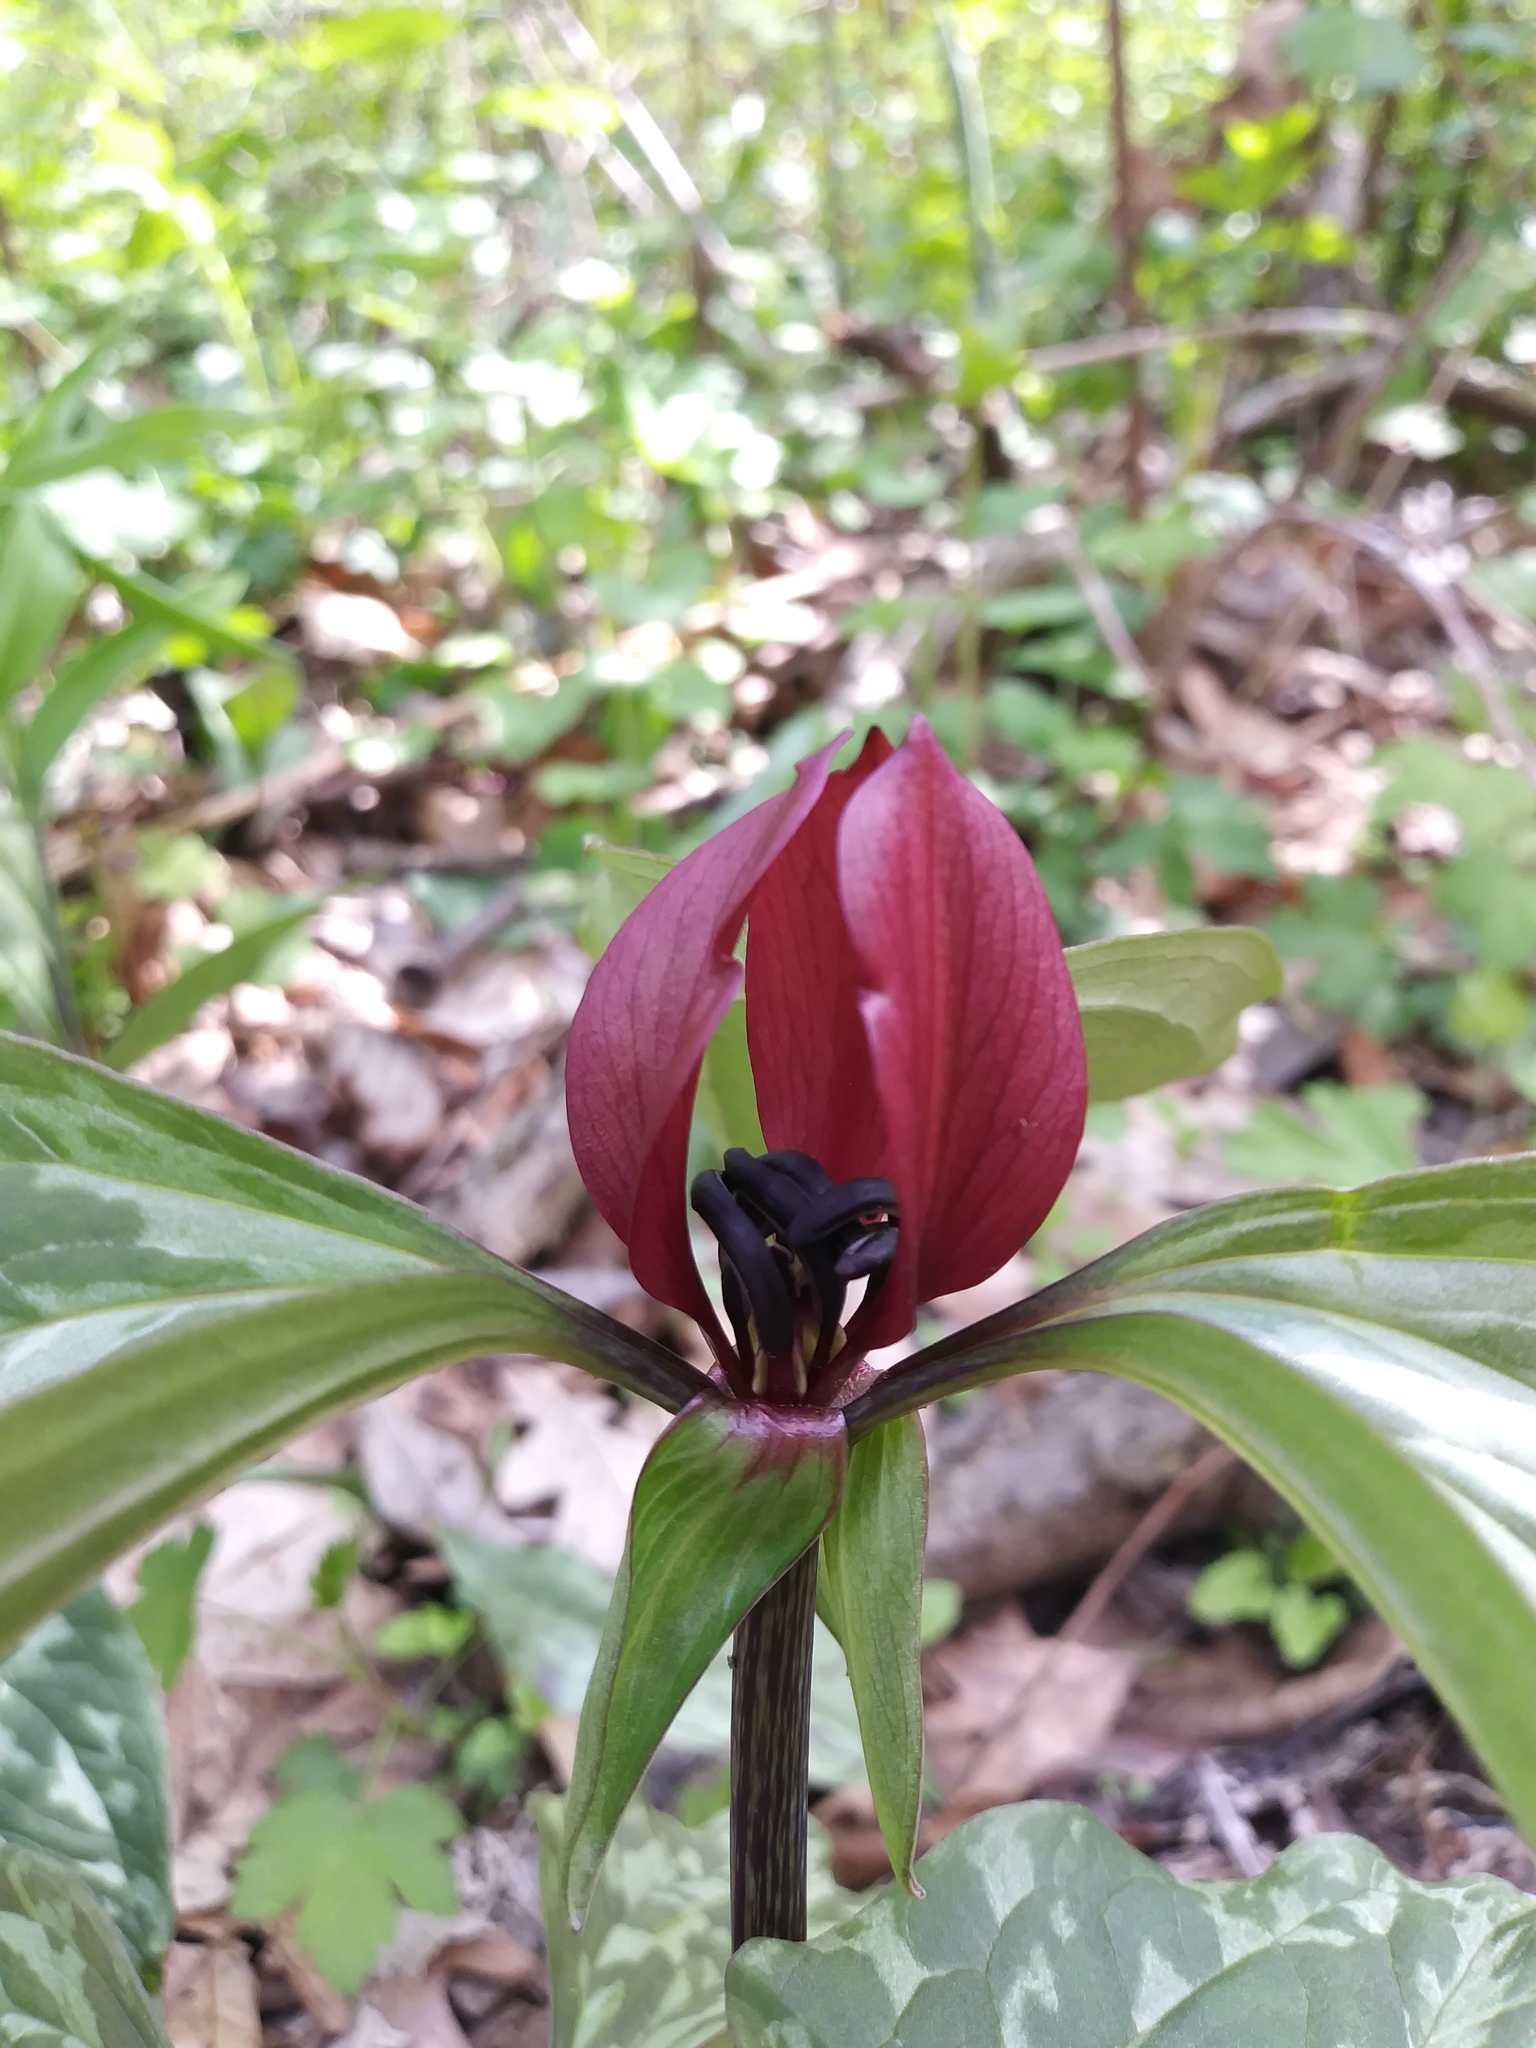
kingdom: Plantae
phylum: Tracheophyta
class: Liliopsida
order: Liliales
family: Melanthiaceae
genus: Trillium
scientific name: Trillium recurvatum
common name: Bloody butcher
